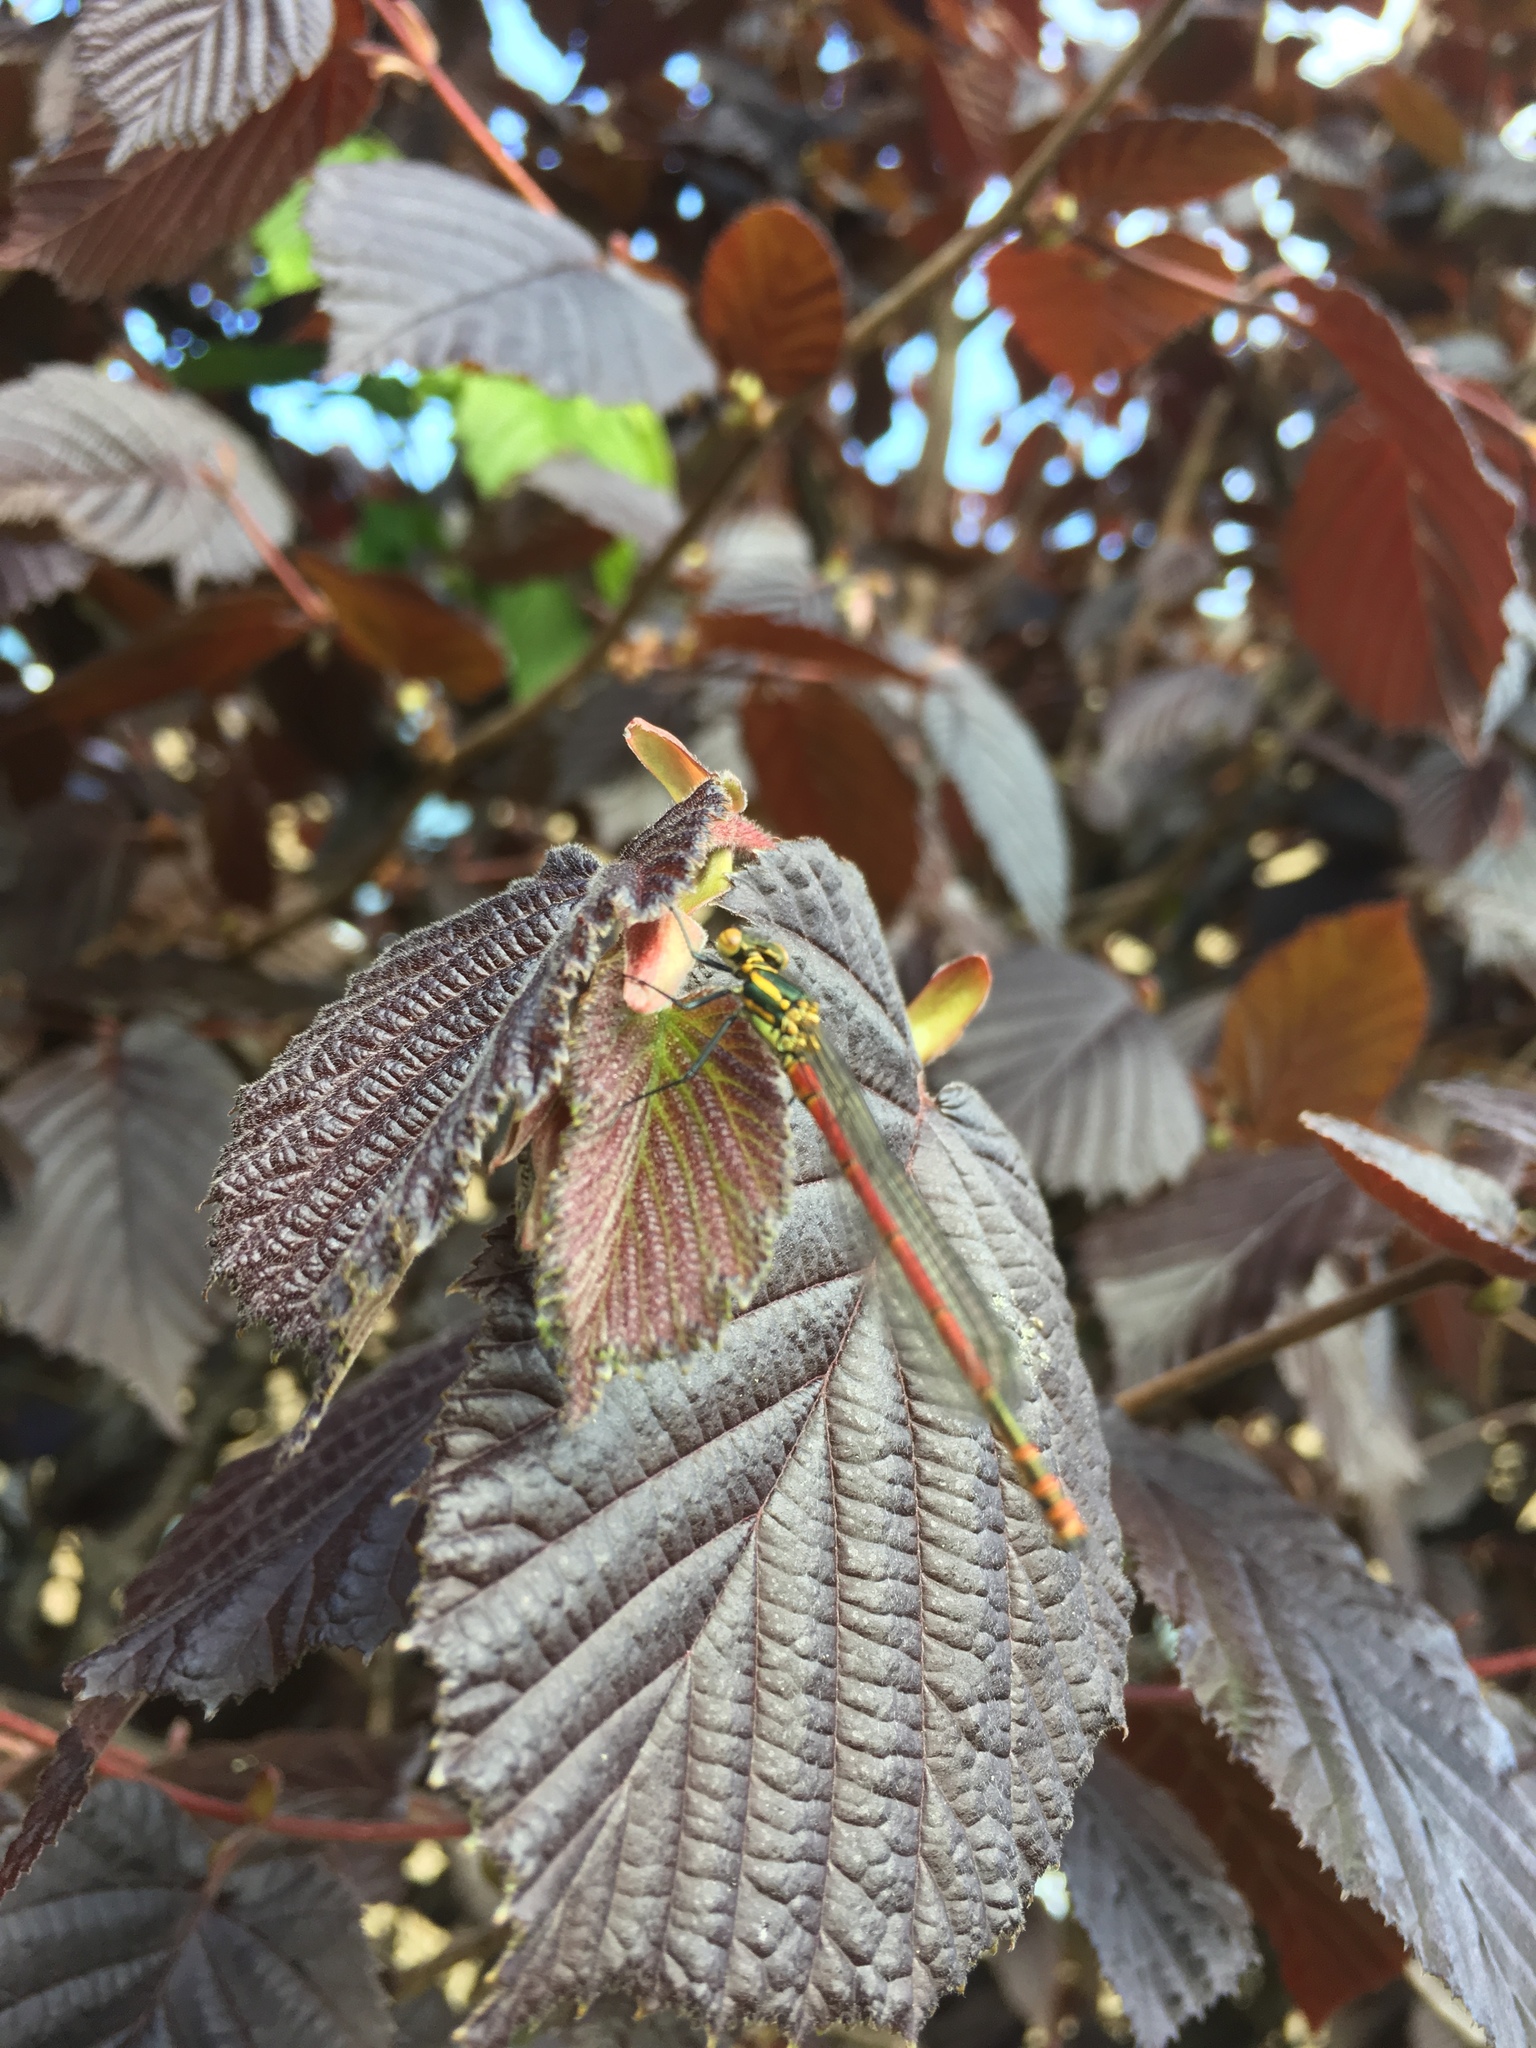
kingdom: Animalia
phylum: Arthropoda
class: Insecta
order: Odonata
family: Coenagrionidae
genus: Pyrrhosoma
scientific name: Pyrrhosoma nymphula
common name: Large red damsel
